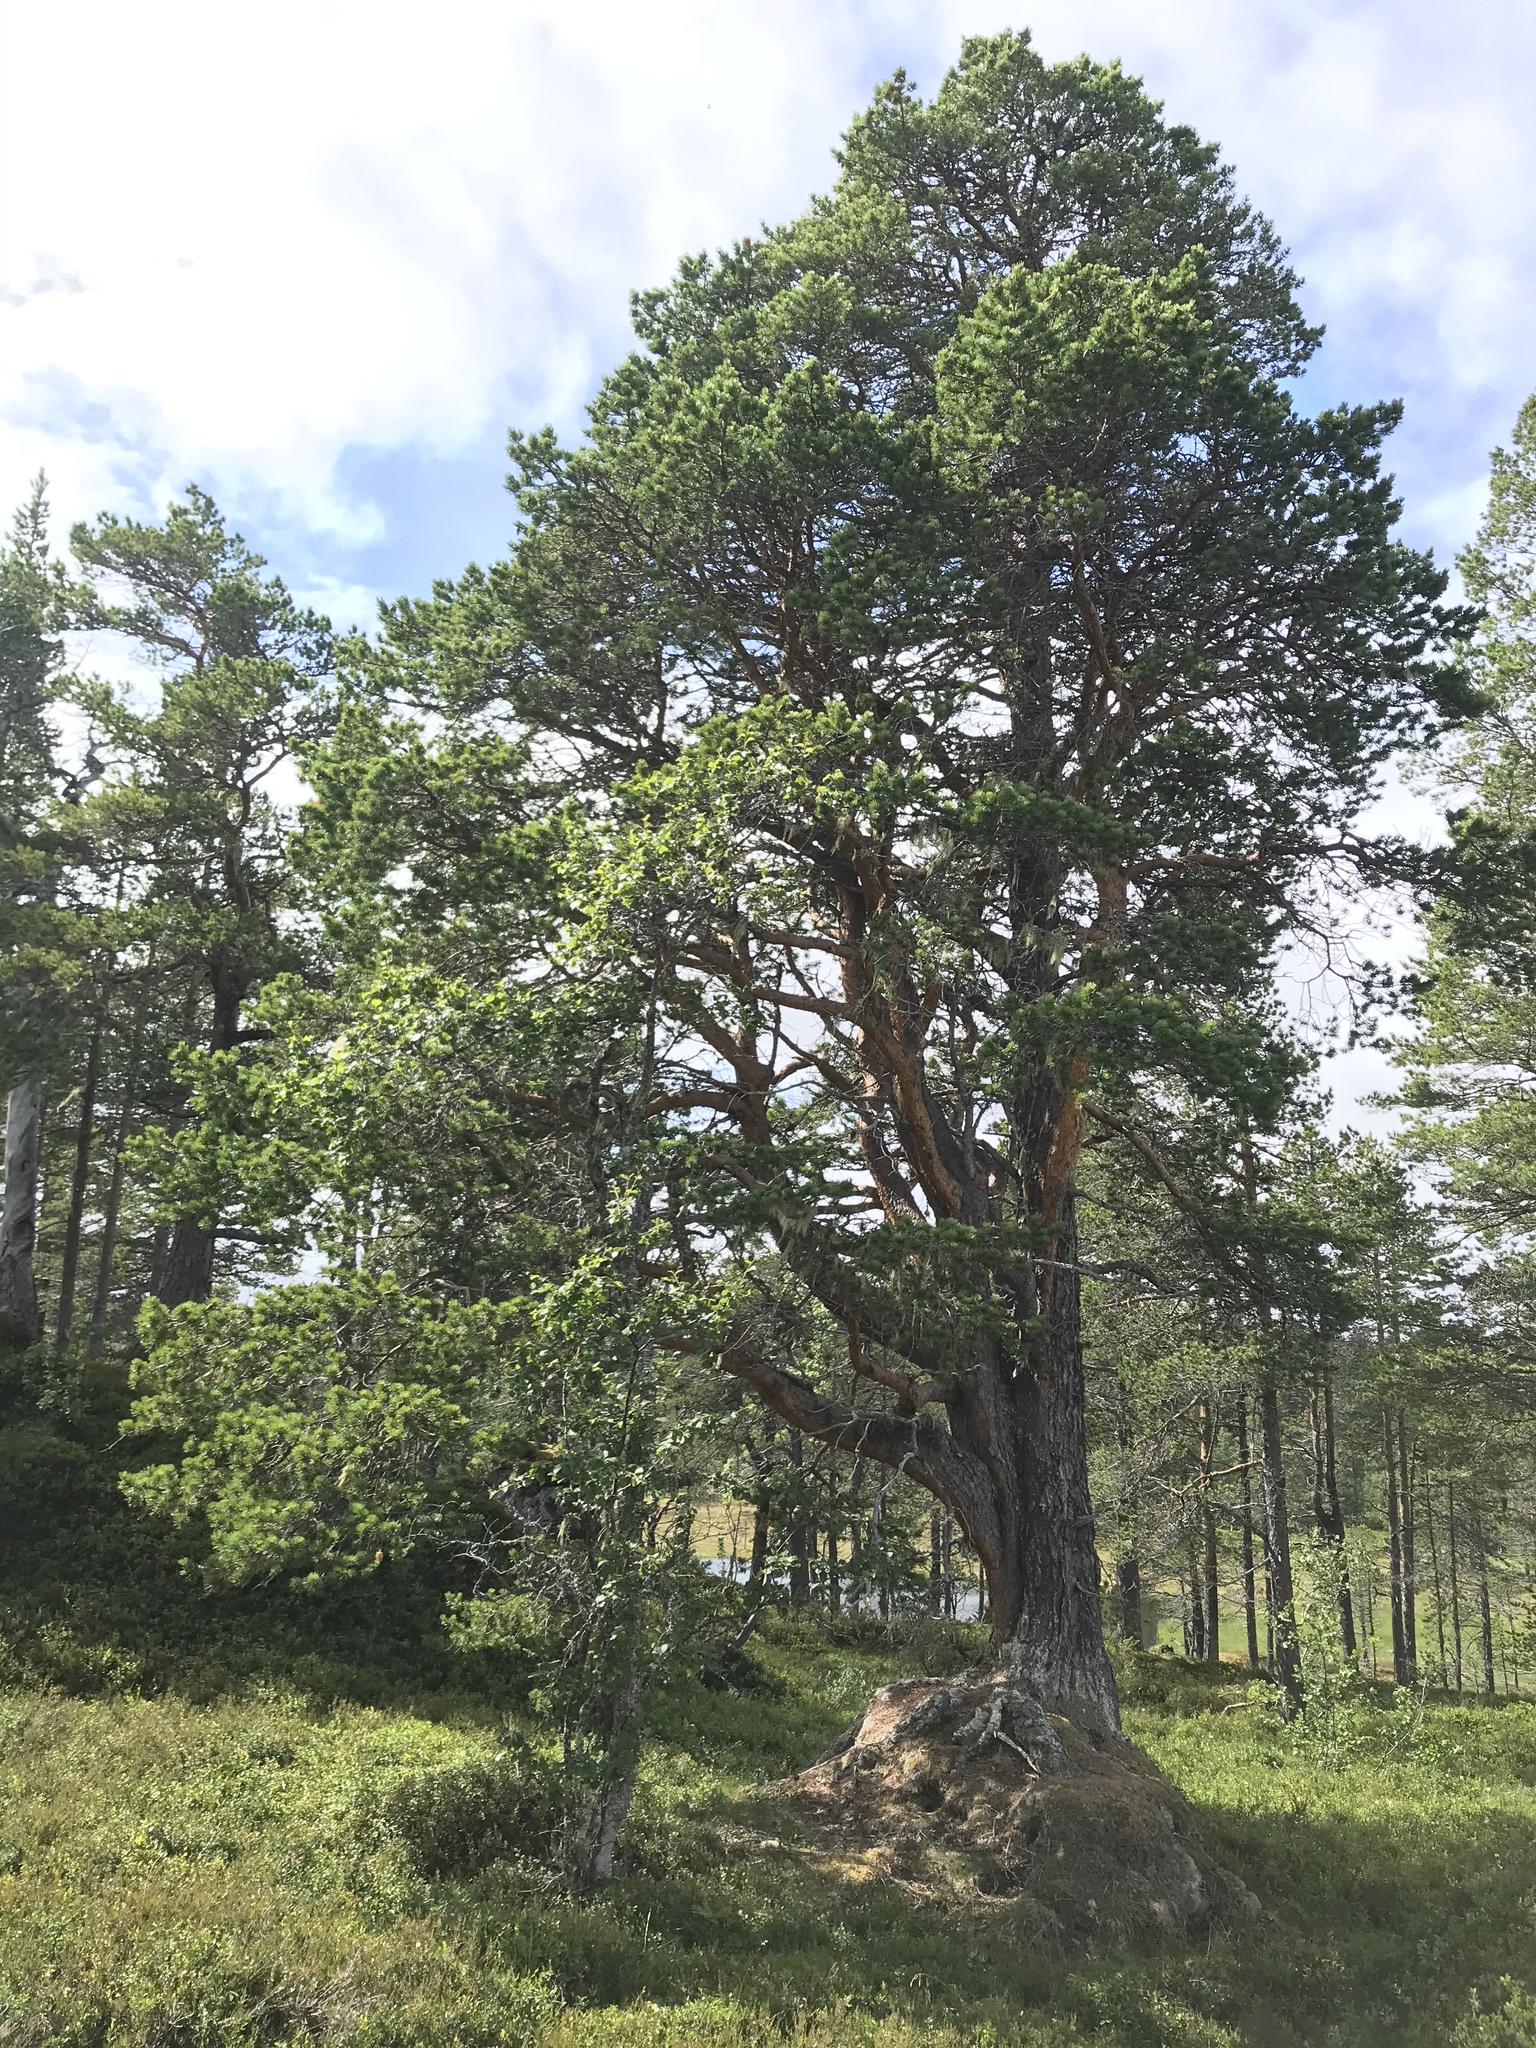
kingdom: Plantae
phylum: Tracheophyta
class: Pinopsida
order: Pinales
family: Pinaceae
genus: Pinus
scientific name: Pinus sylvestris
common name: Scots pine
